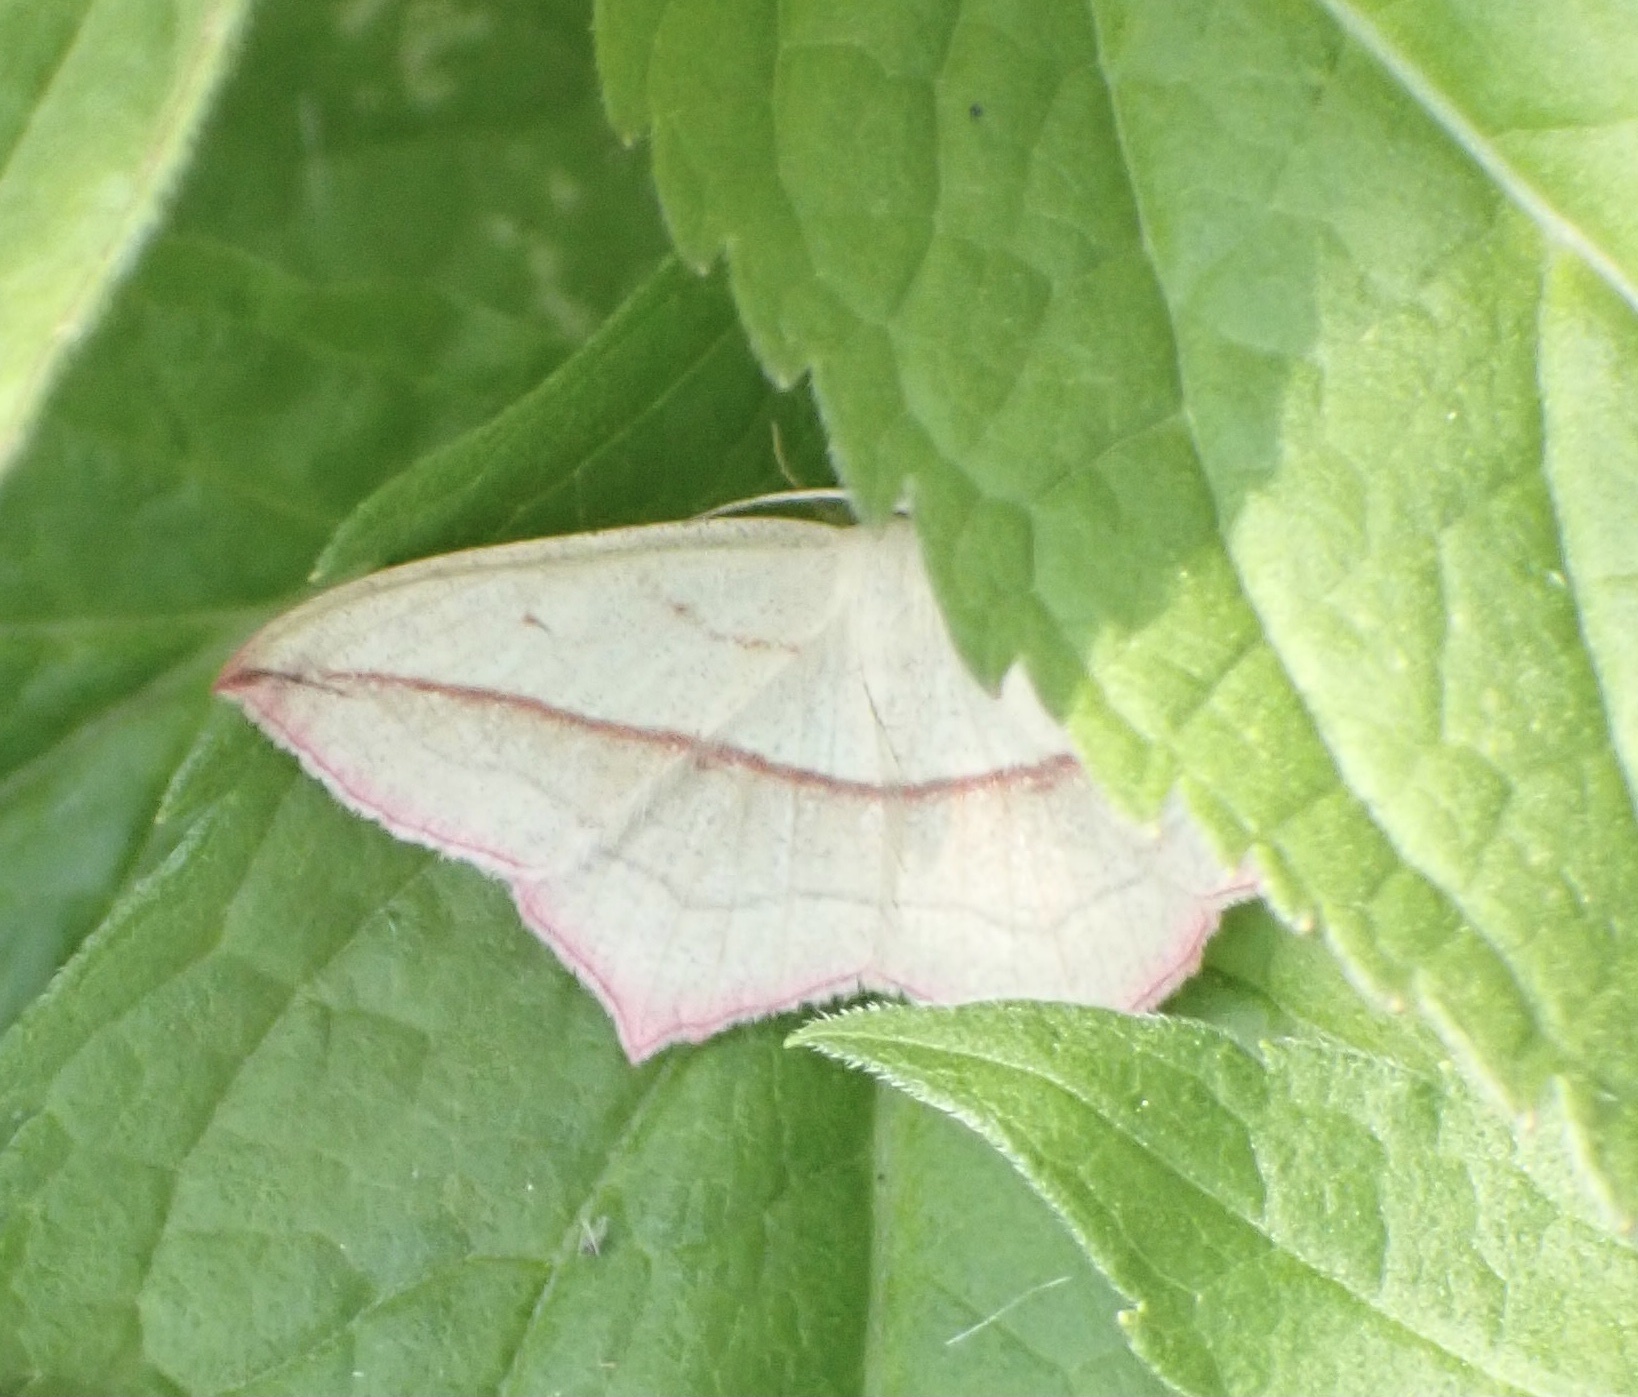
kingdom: Animalia
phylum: Arthropoda
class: Insecta
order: Lepidoptera
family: Geometridae
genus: Timandra
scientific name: Timandra comae
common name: Blood-vein
